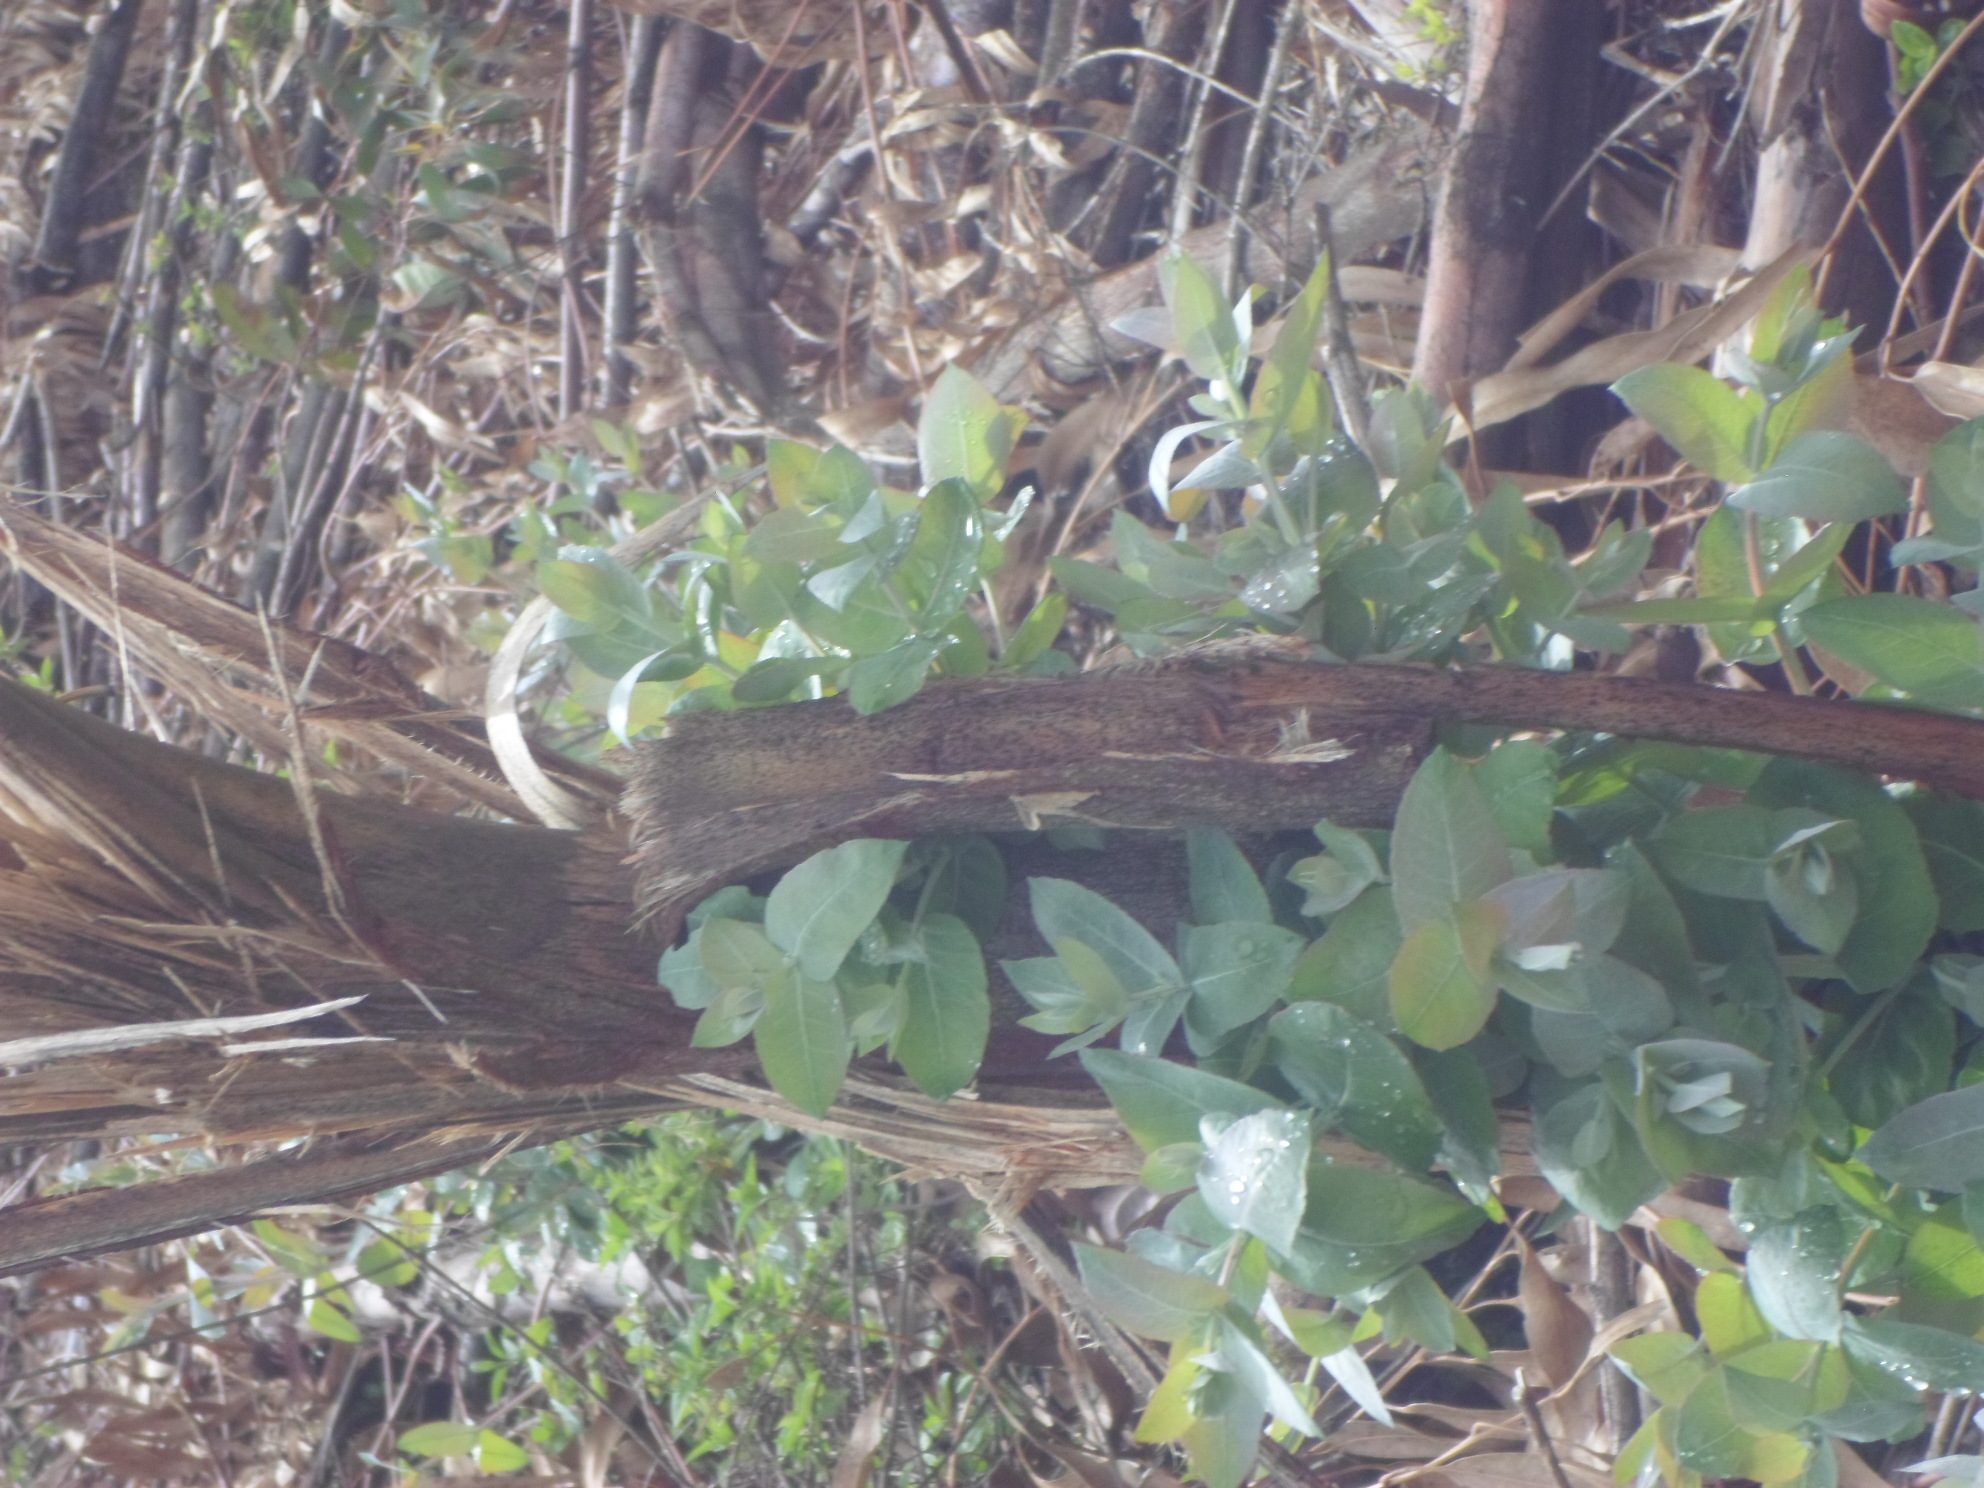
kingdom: Plantae
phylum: Tracheophyta
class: Magnoliopsida
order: Myrtales
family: Myrtaceae
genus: Eucalyptus
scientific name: Eucalyptus globulus
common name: Southern blue-gum
